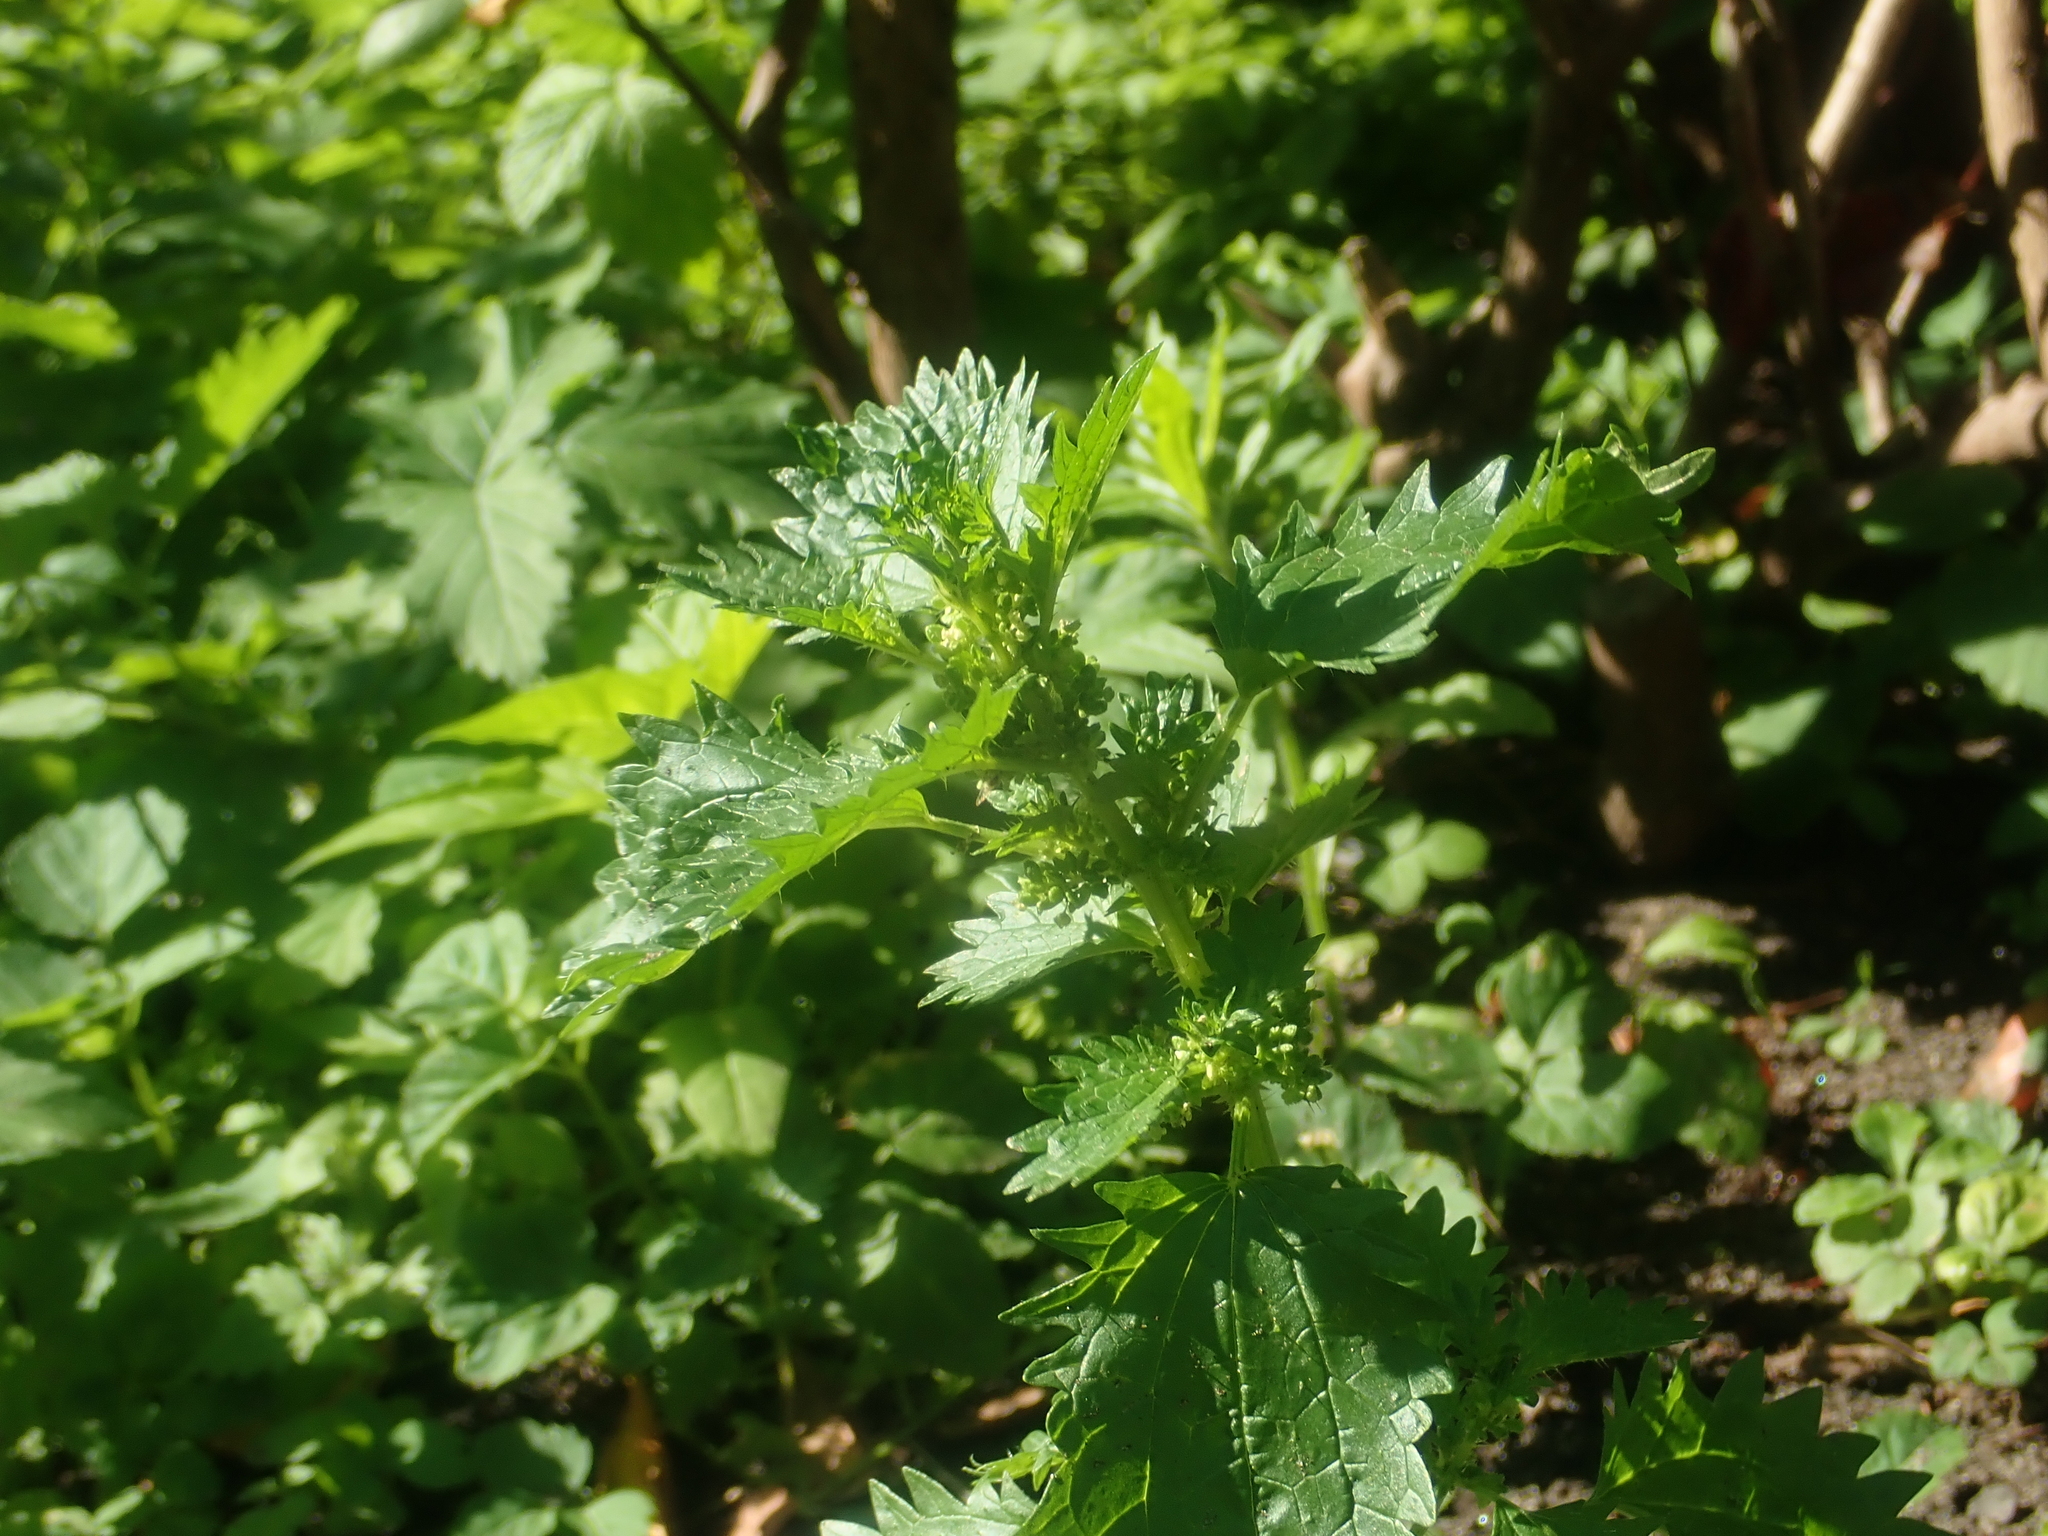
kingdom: Plantae
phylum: Tracheophyta
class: Magnoliopsida
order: Rosales
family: Urticaceae
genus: Urtica
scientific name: Urtica urens
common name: Dwarf nettle
